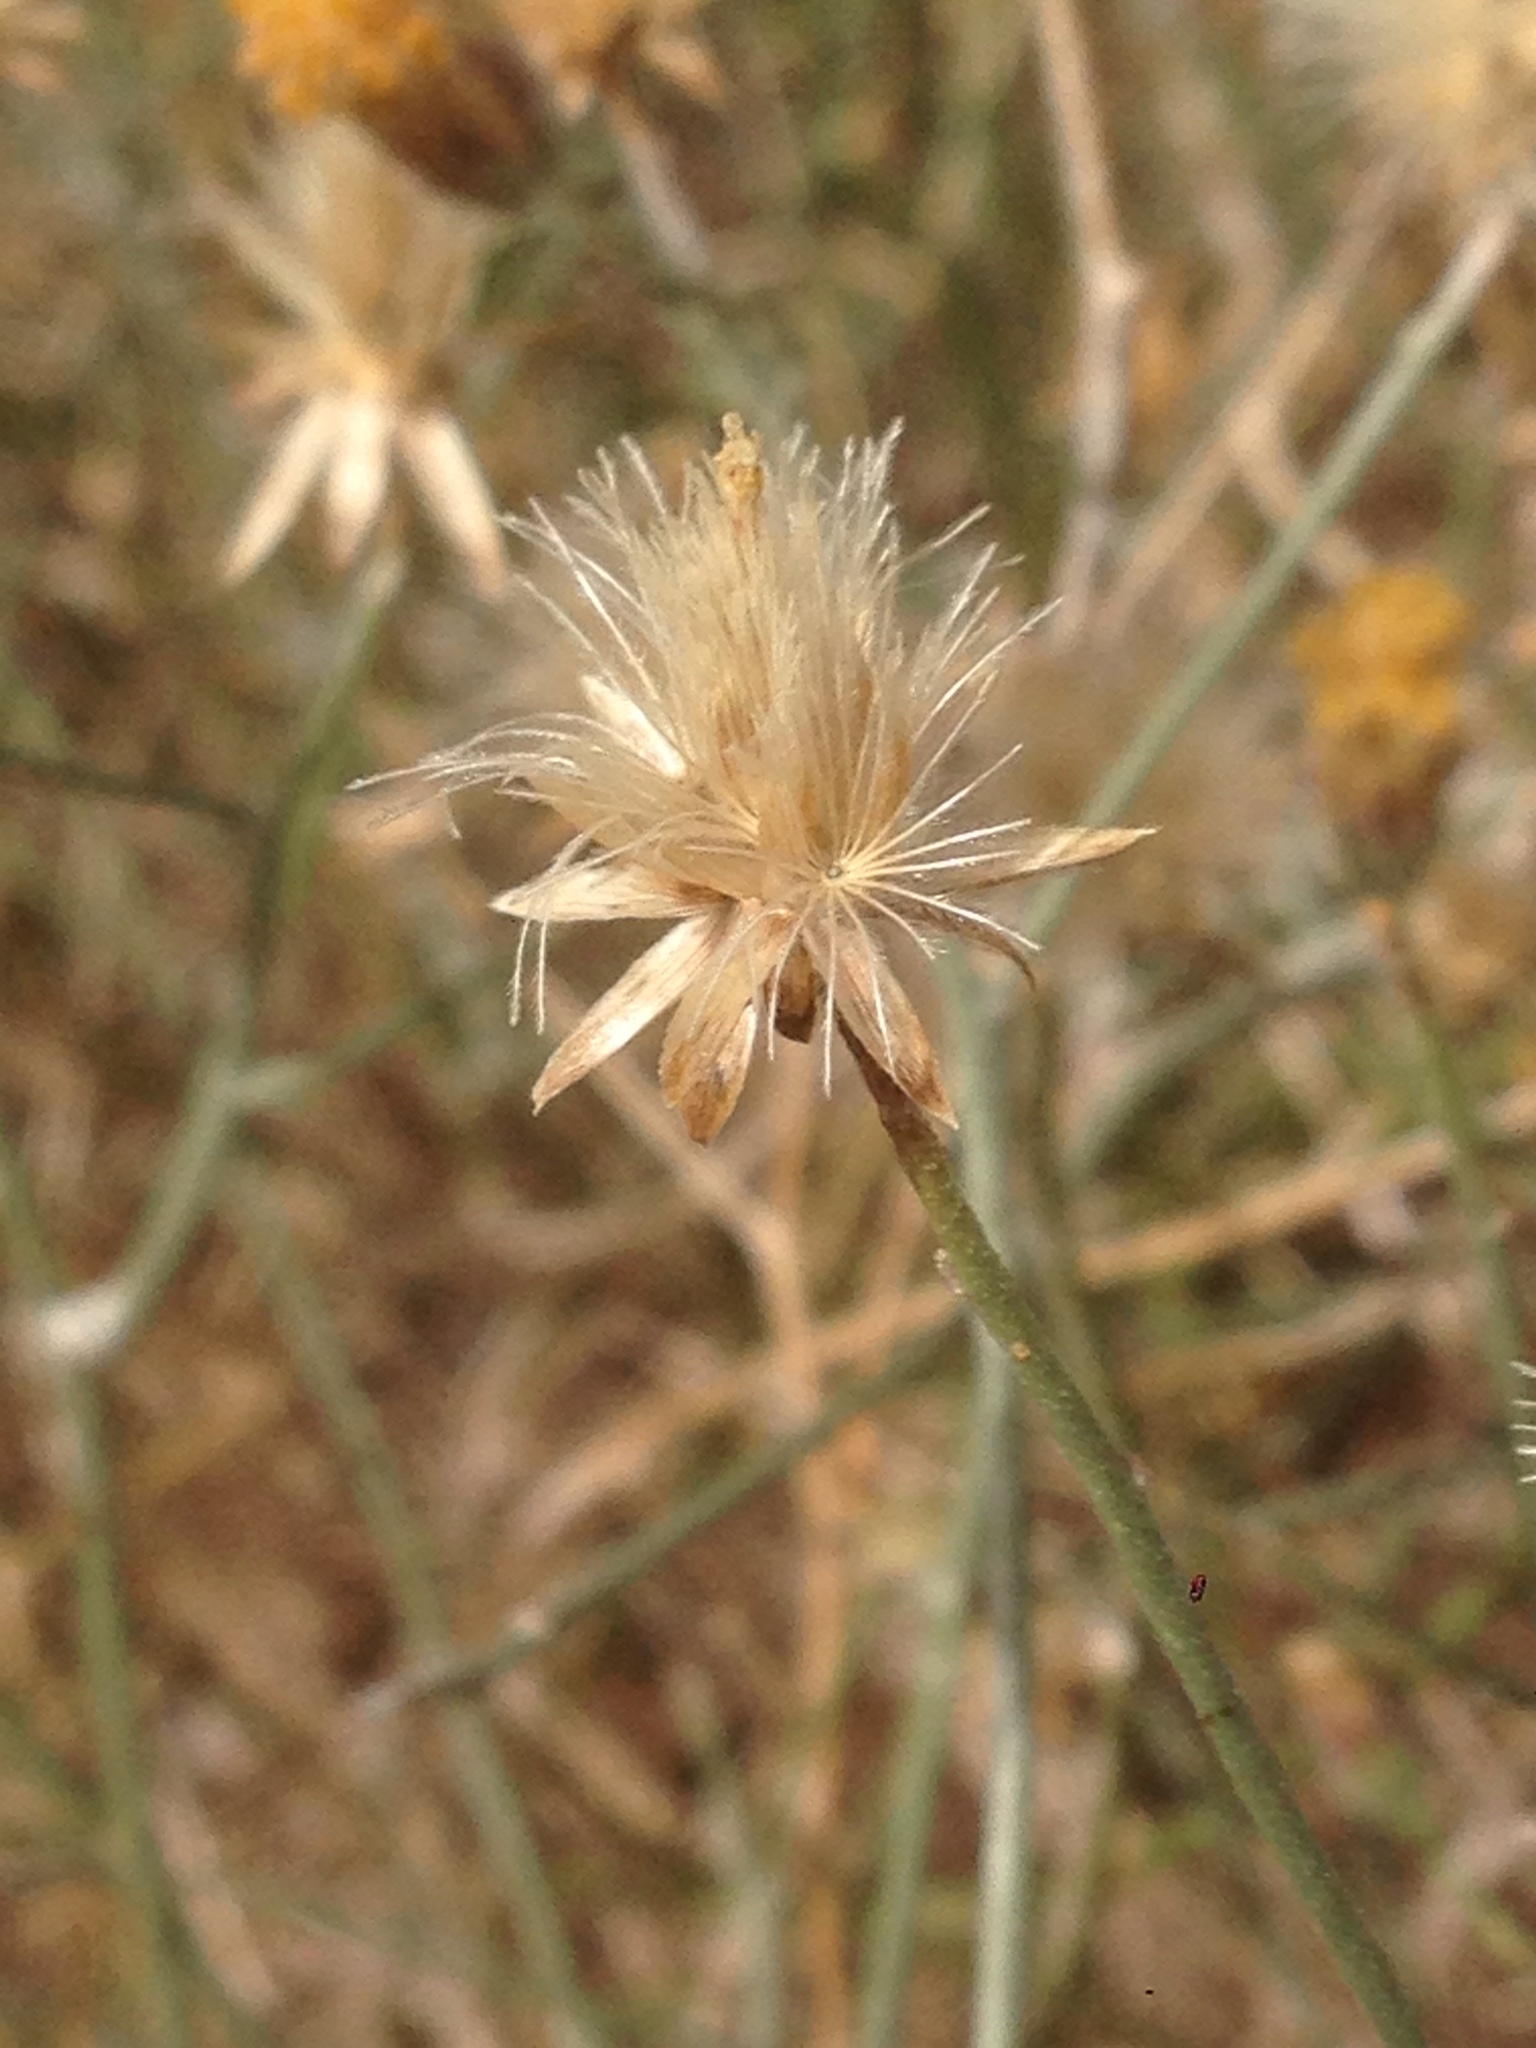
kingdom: Plantae
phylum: Tracheophyta
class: Magnoliopsida
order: Asterales
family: Asteraceae
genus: Bebbia
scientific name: Bebbia juncea
